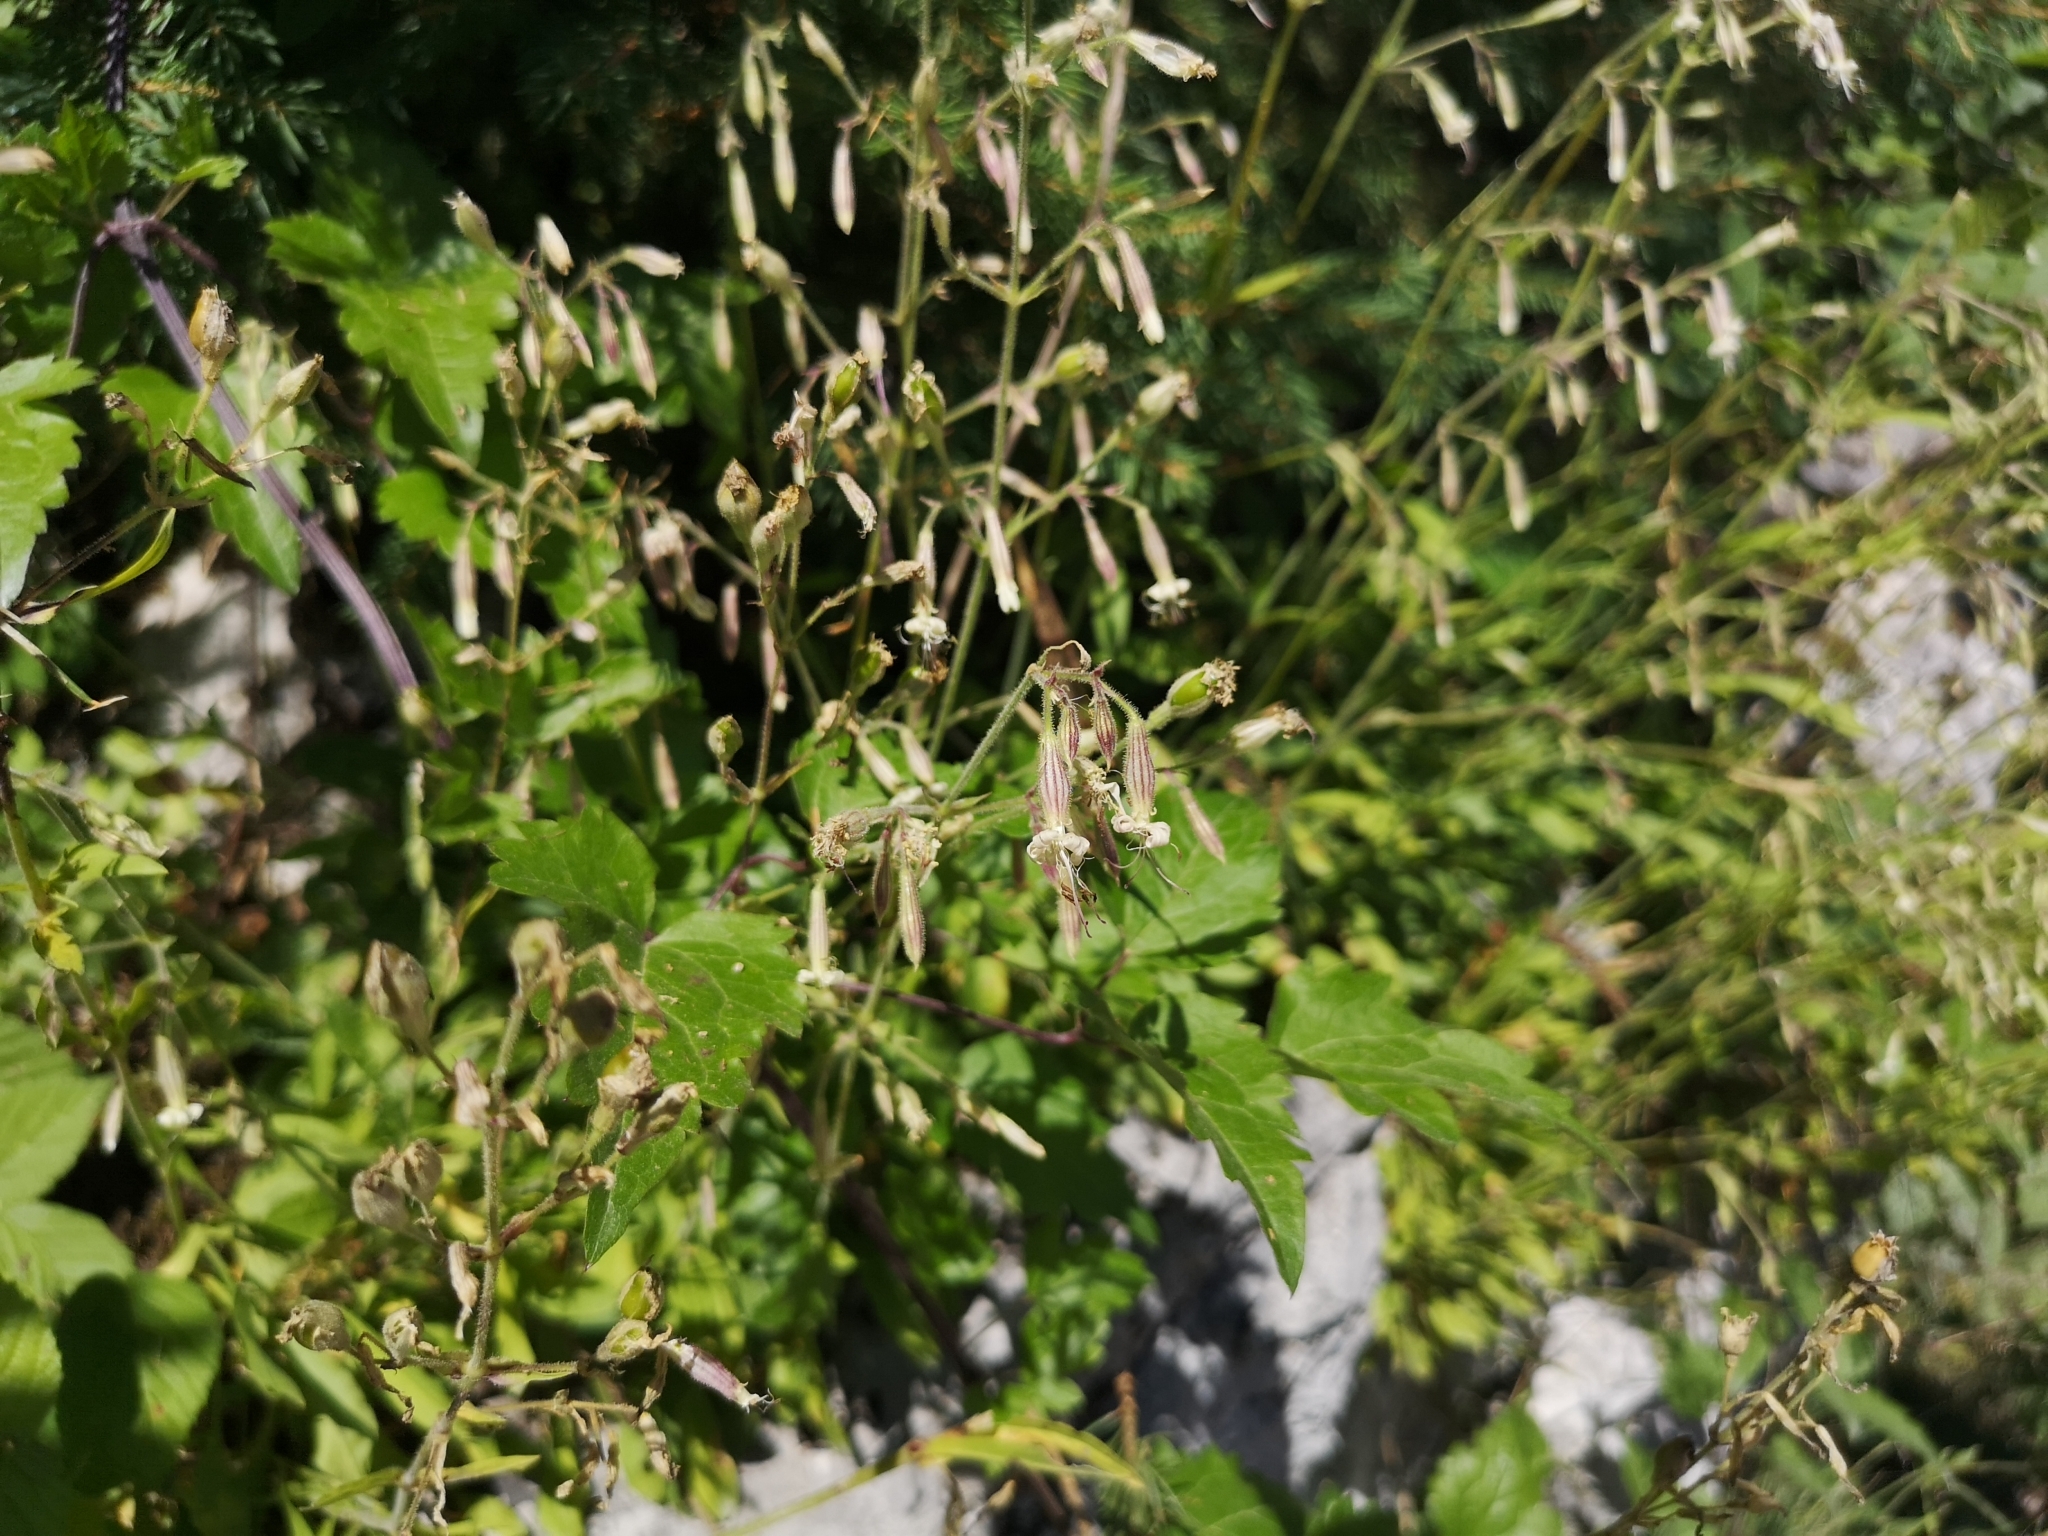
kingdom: Plantae
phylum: Tracheophyta
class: Magnoliopsida
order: Caryophyllales
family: Caryophyllaceae
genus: Silene
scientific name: Silene nutans
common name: Nottingham catchfly
